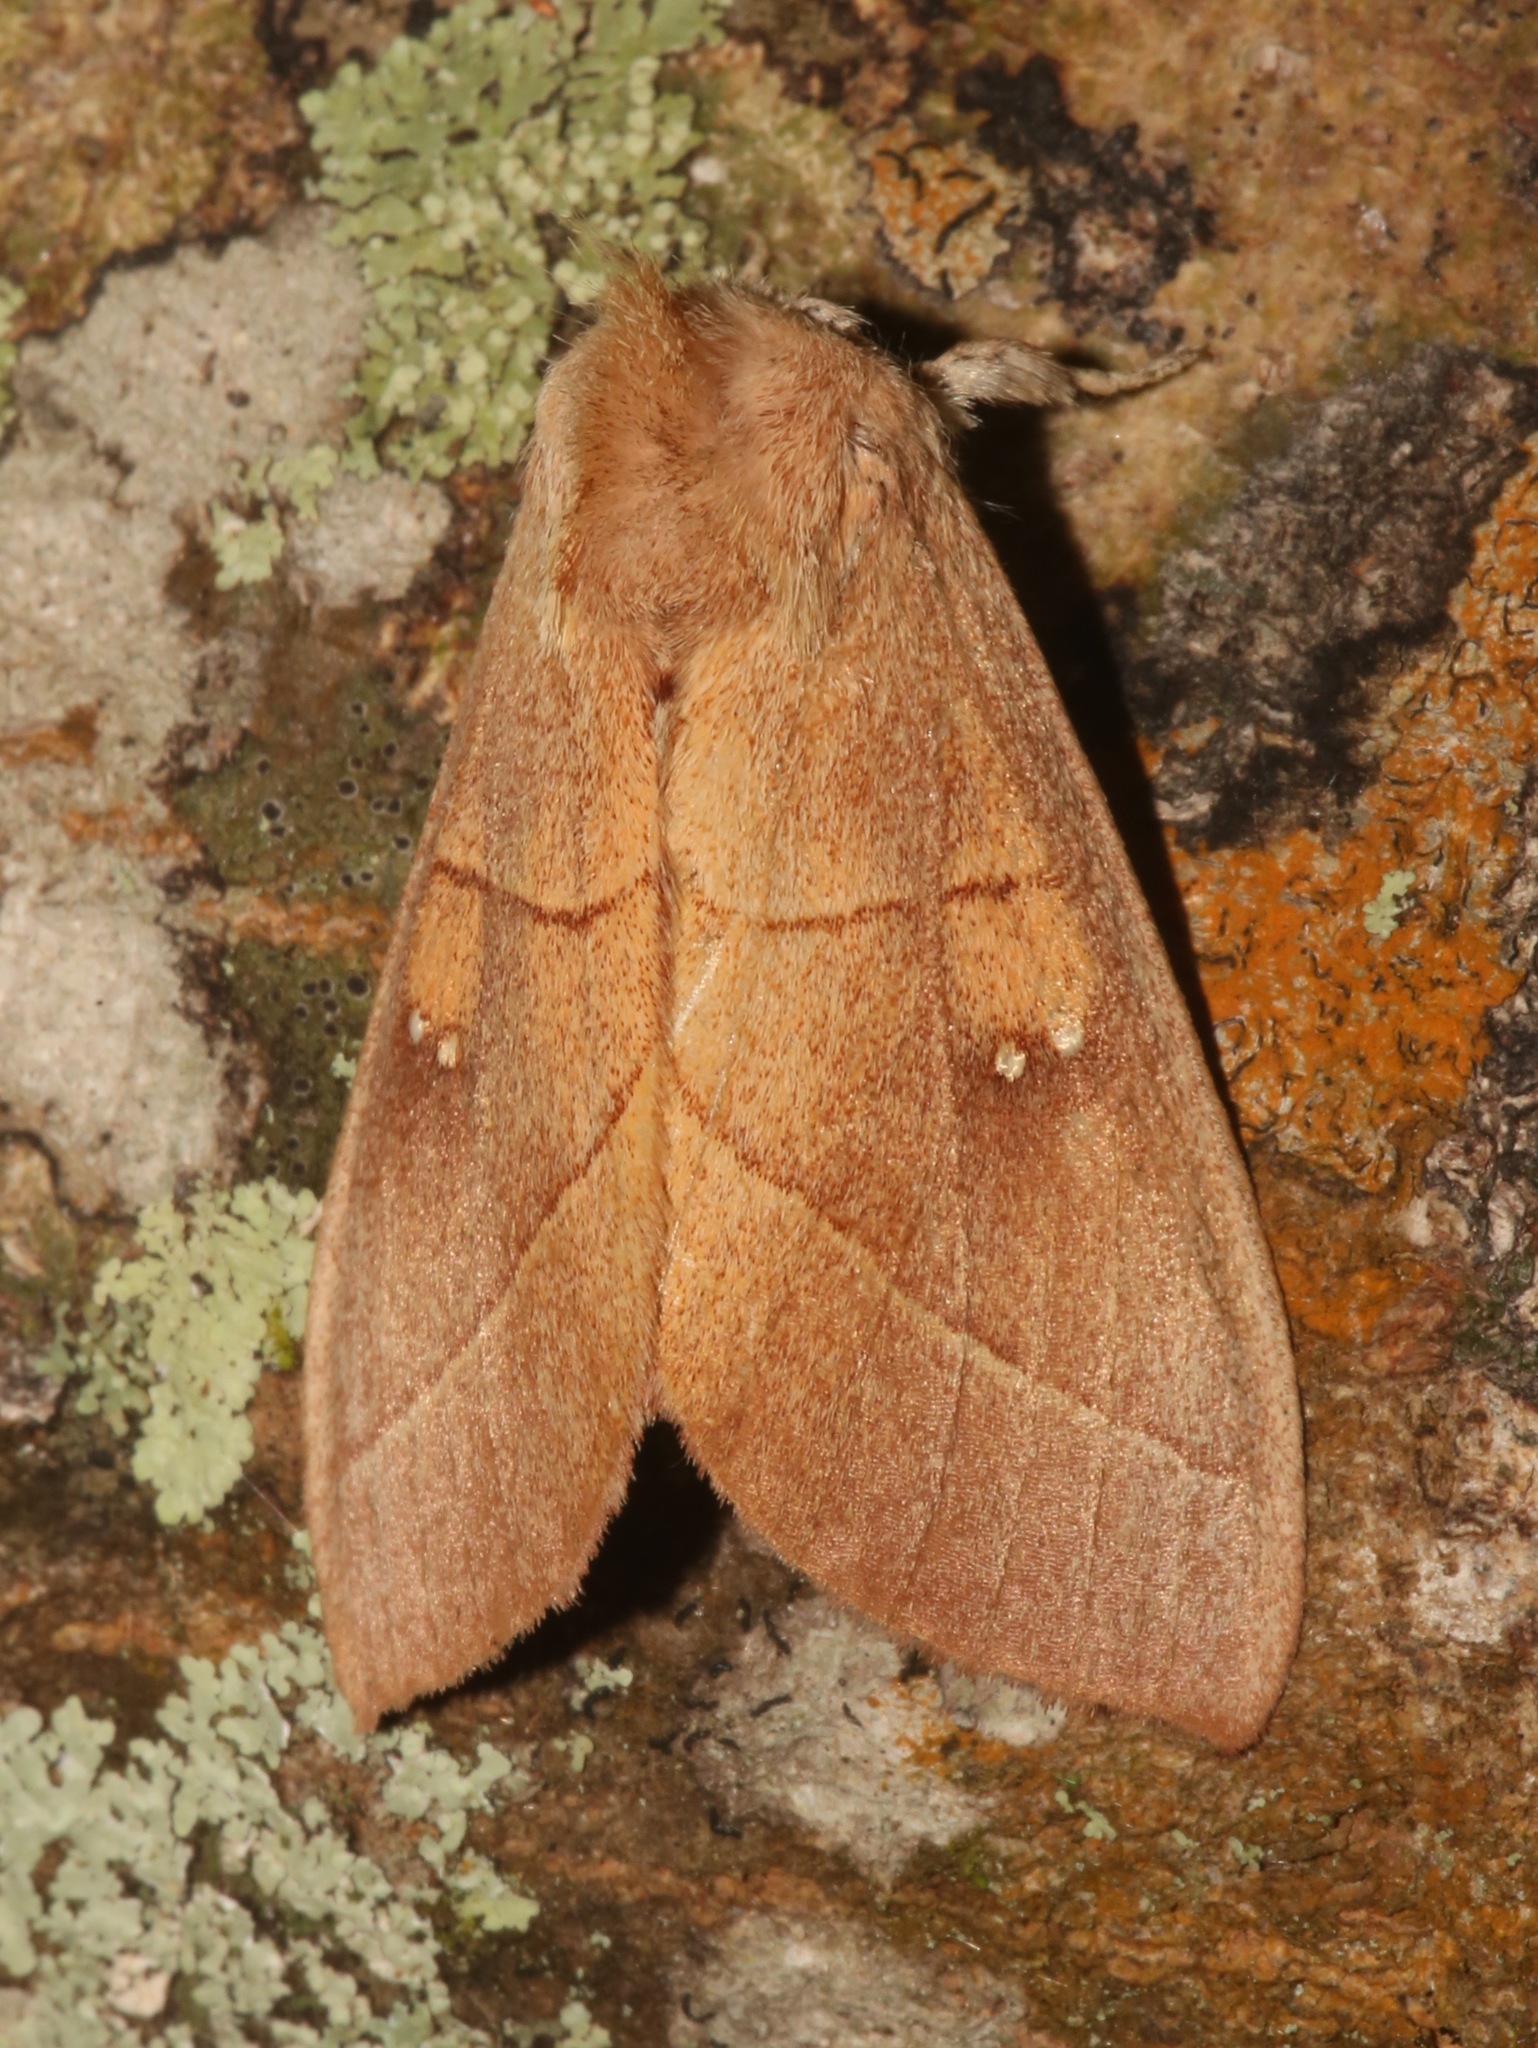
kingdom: Animalia
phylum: Arthropoda
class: Insecta
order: Lepidoptera
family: Notodontidae
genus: Nadata
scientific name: Nadata gibbosa
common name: White-dotted prominent
